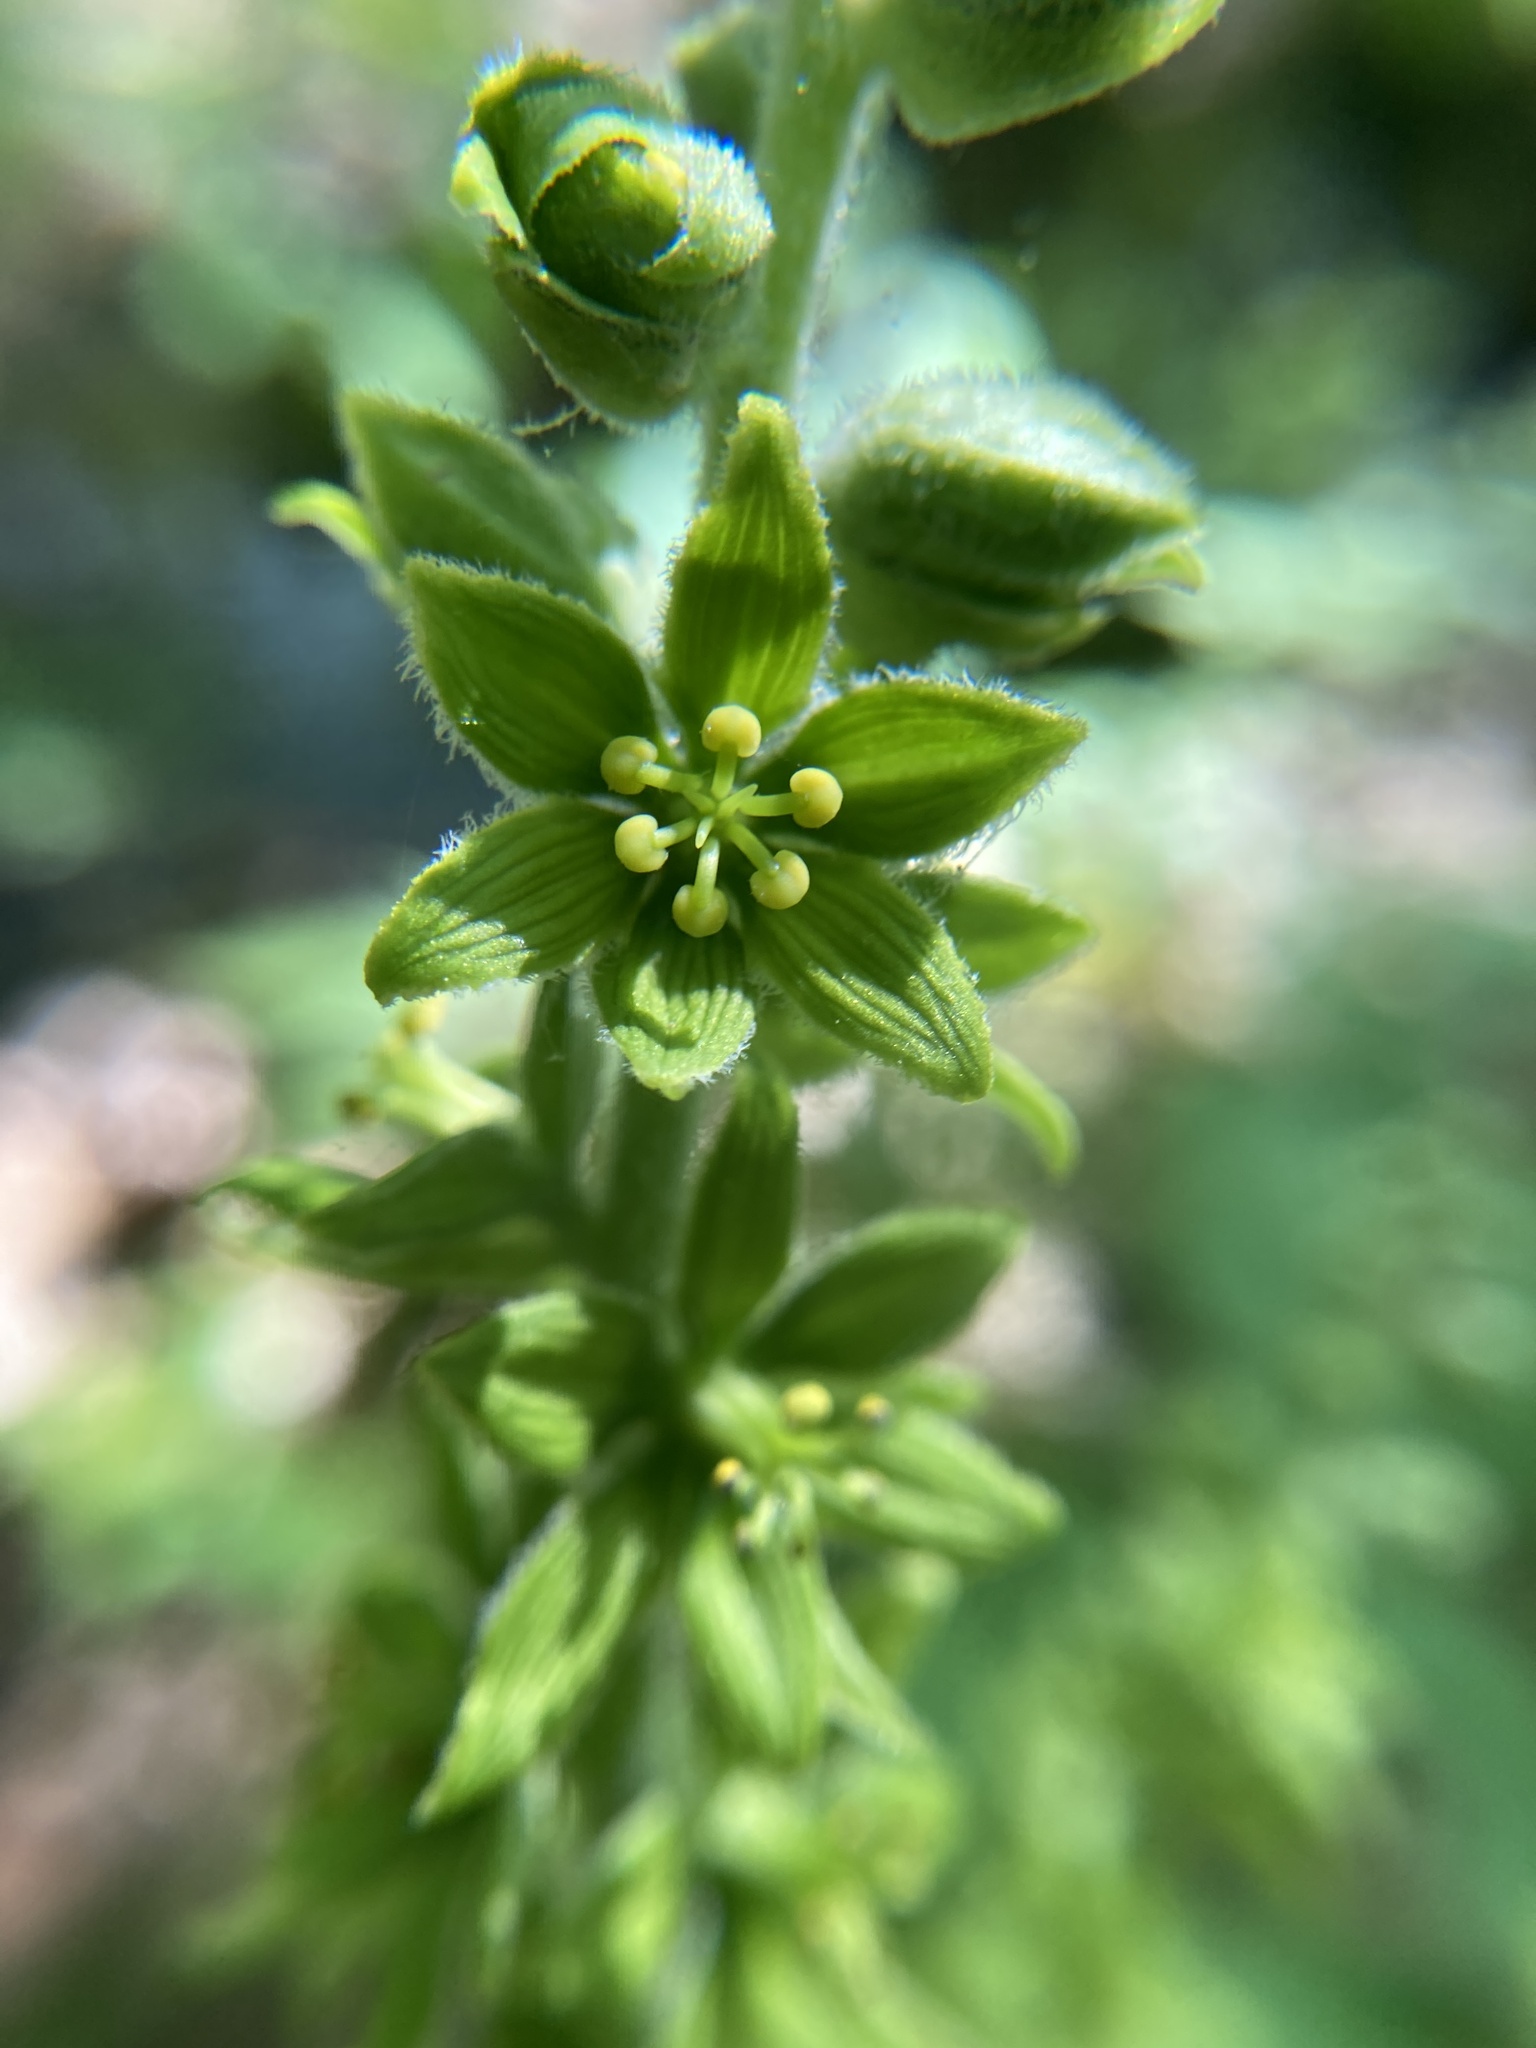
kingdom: Plantae
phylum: Tracheophyta
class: Liliopsida
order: Liliales
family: Melanthiaceae
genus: Veratrum
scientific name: Veratrum viride
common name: American false hellebore
